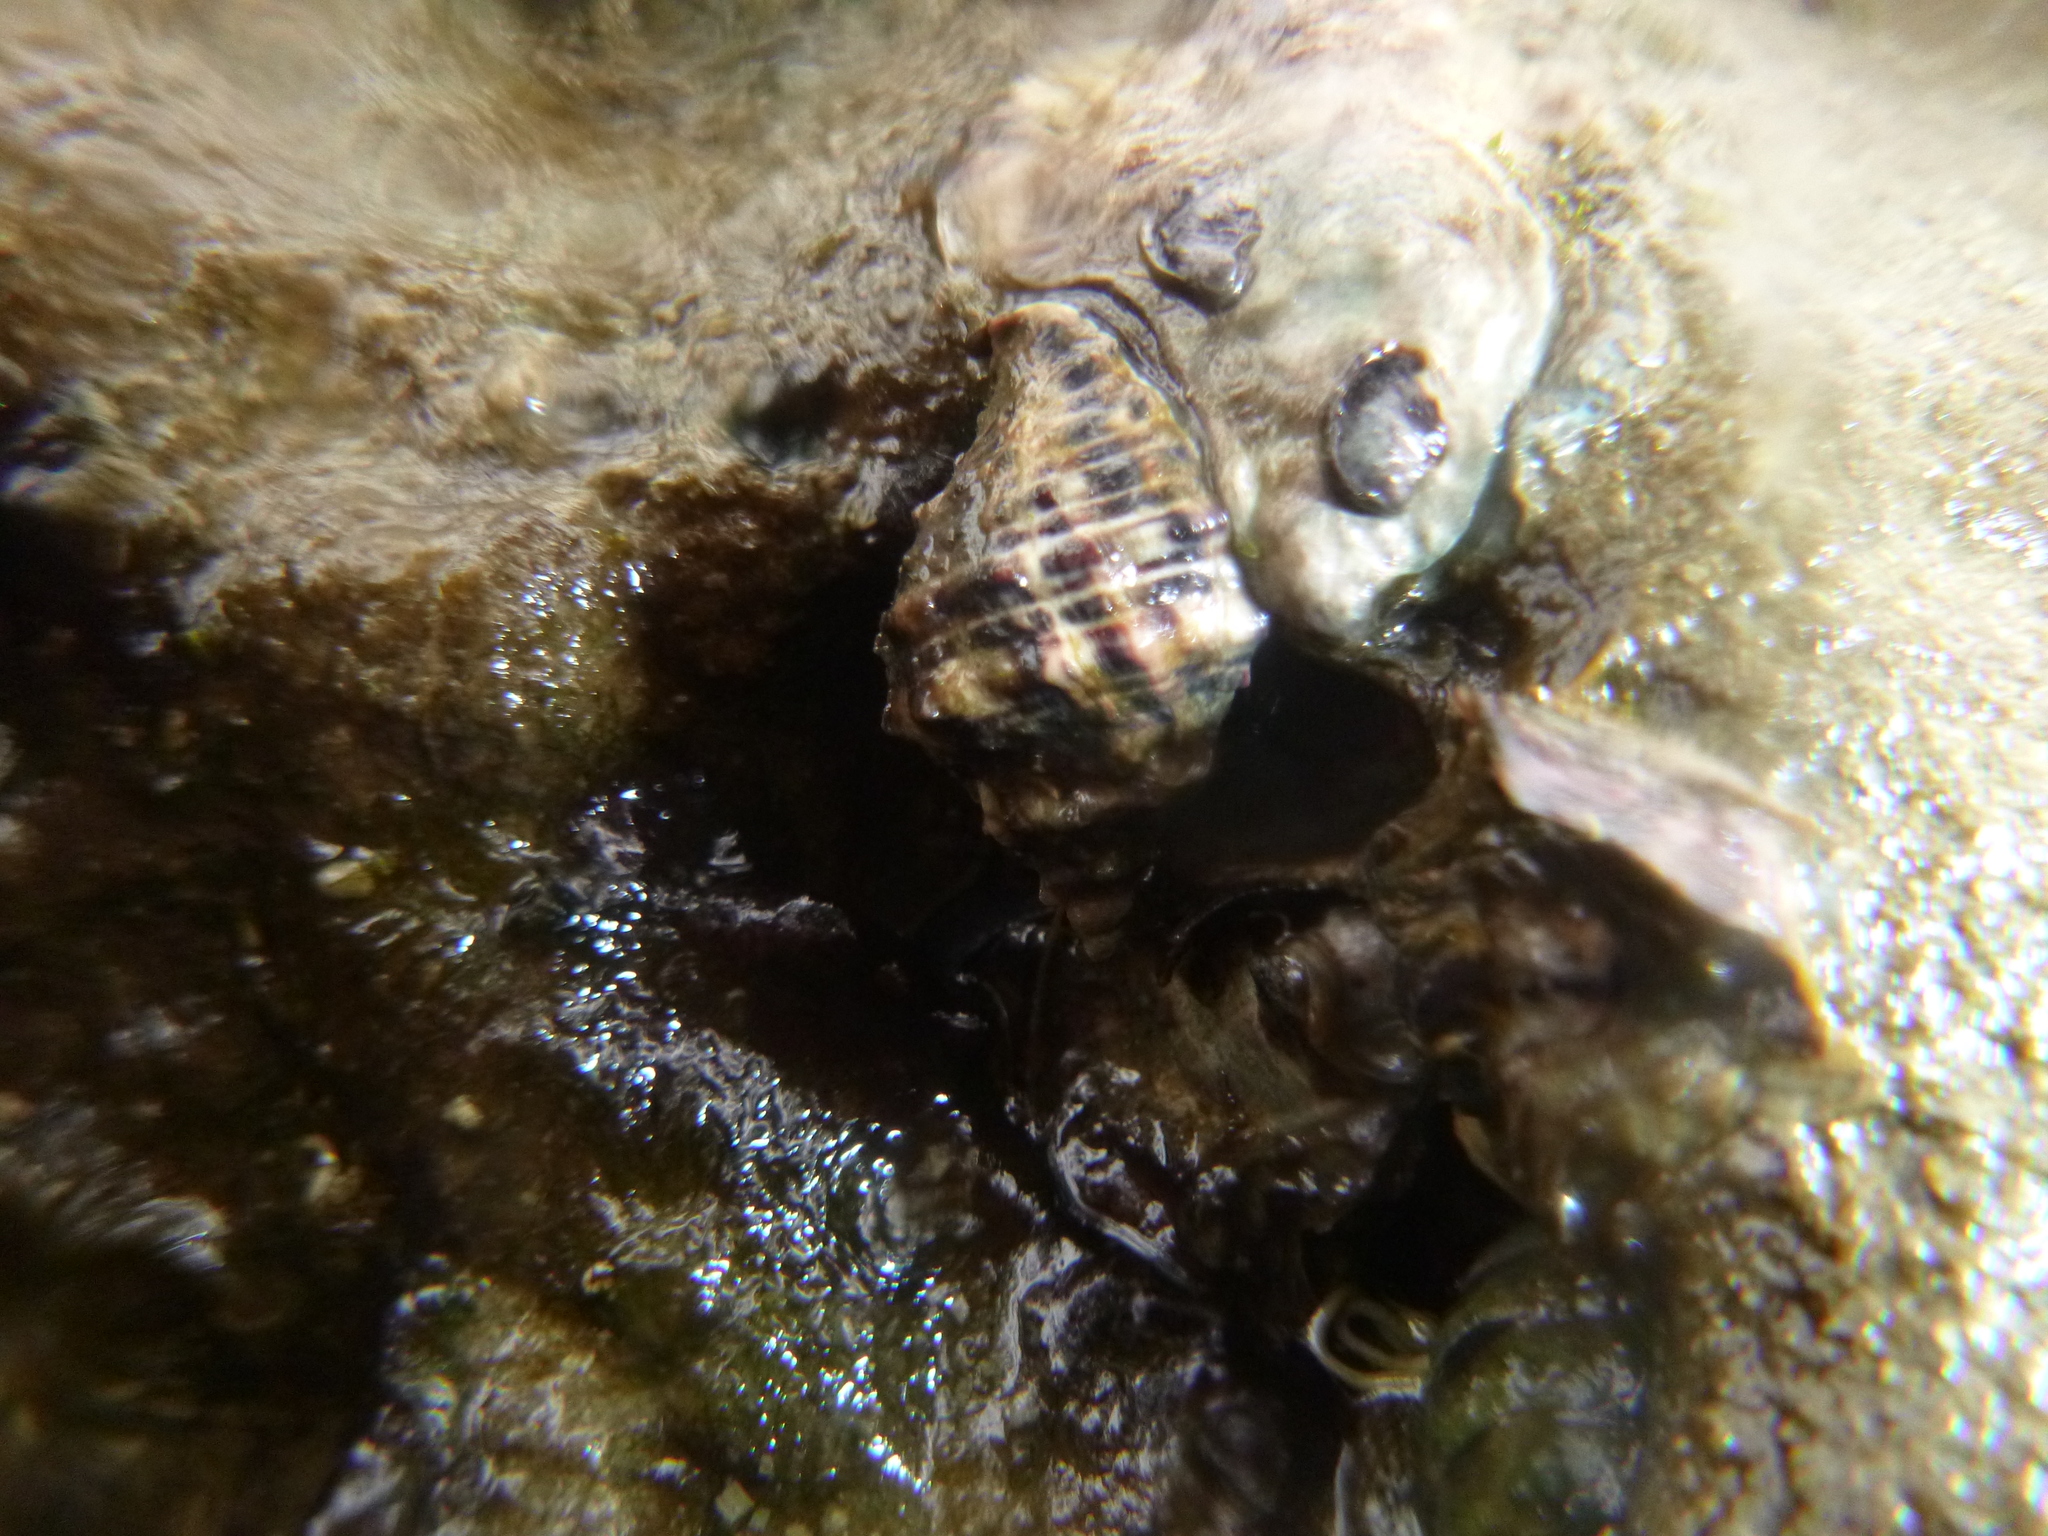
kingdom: Animalia
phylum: Mollusca
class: Gastropoda
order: Neogastropoda
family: Muricidae
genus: Haustrum
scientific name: Haustrum scobina
